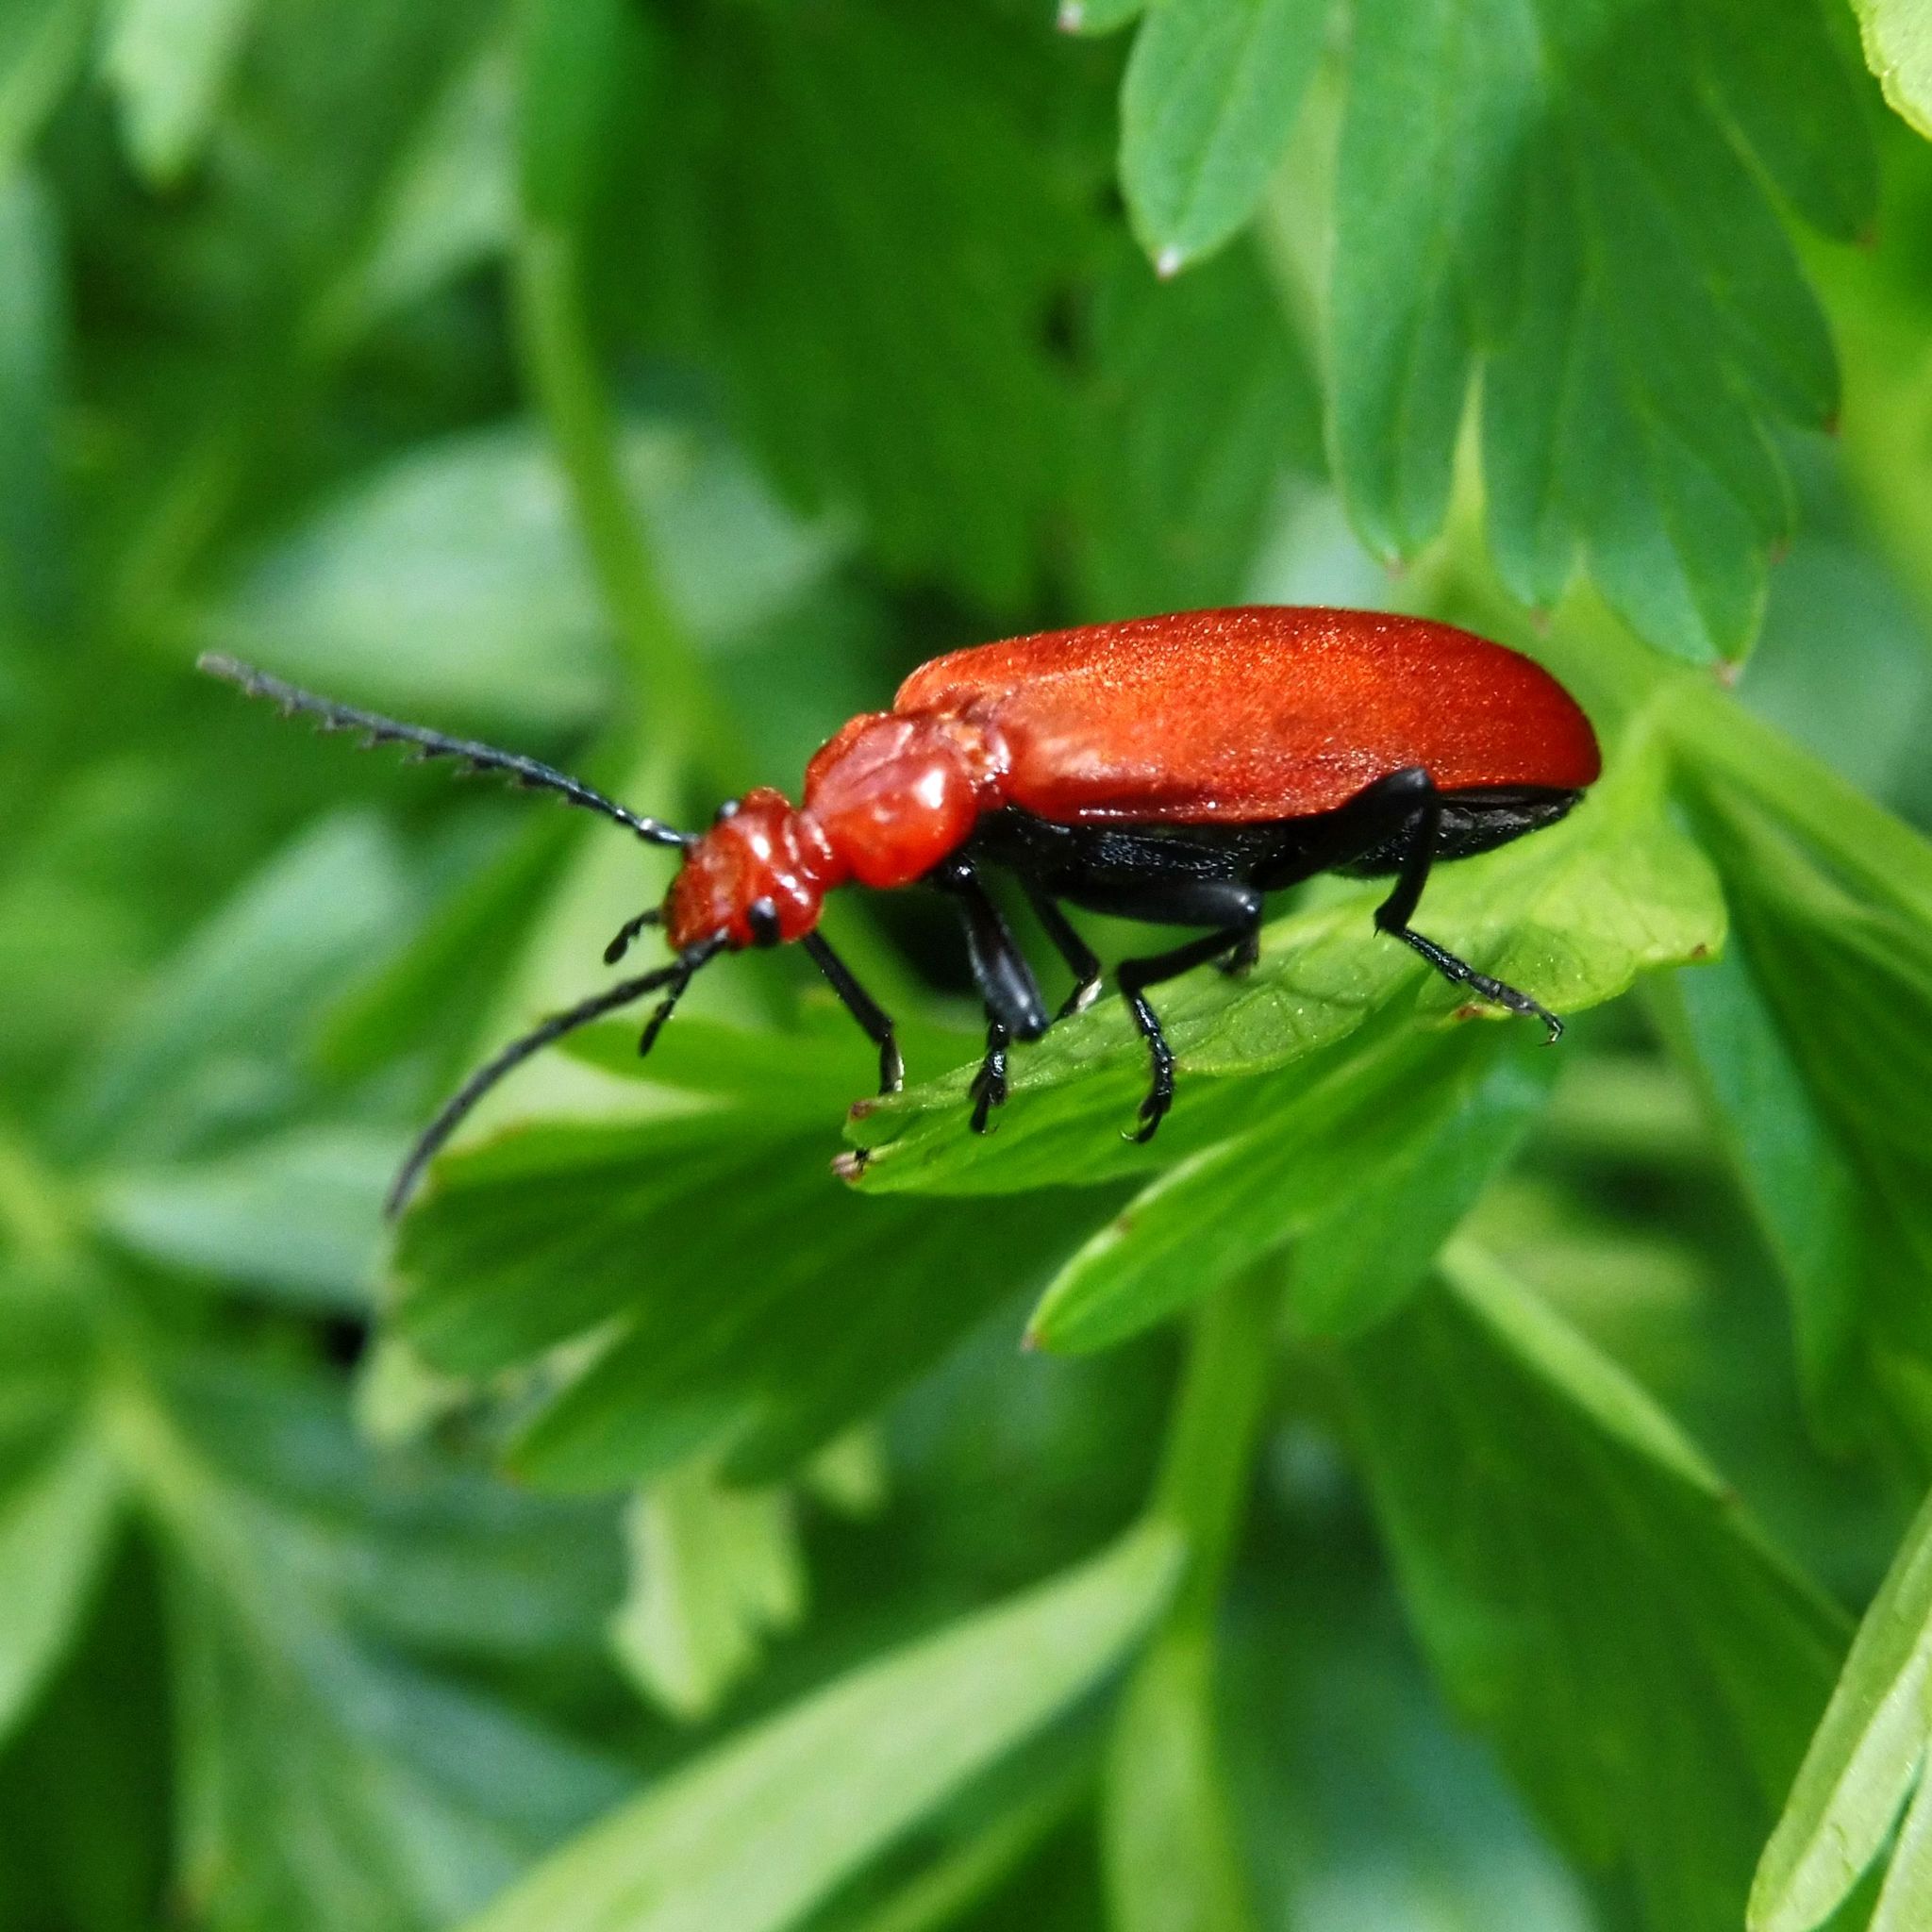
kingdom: Animalia
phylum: Arthropoda
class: Insecta
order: Coleoptera
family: Pyrochroidae
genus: Pyrochroa
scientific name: Pyrochroa serraticornis
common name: Red-headed cardinal beetle
